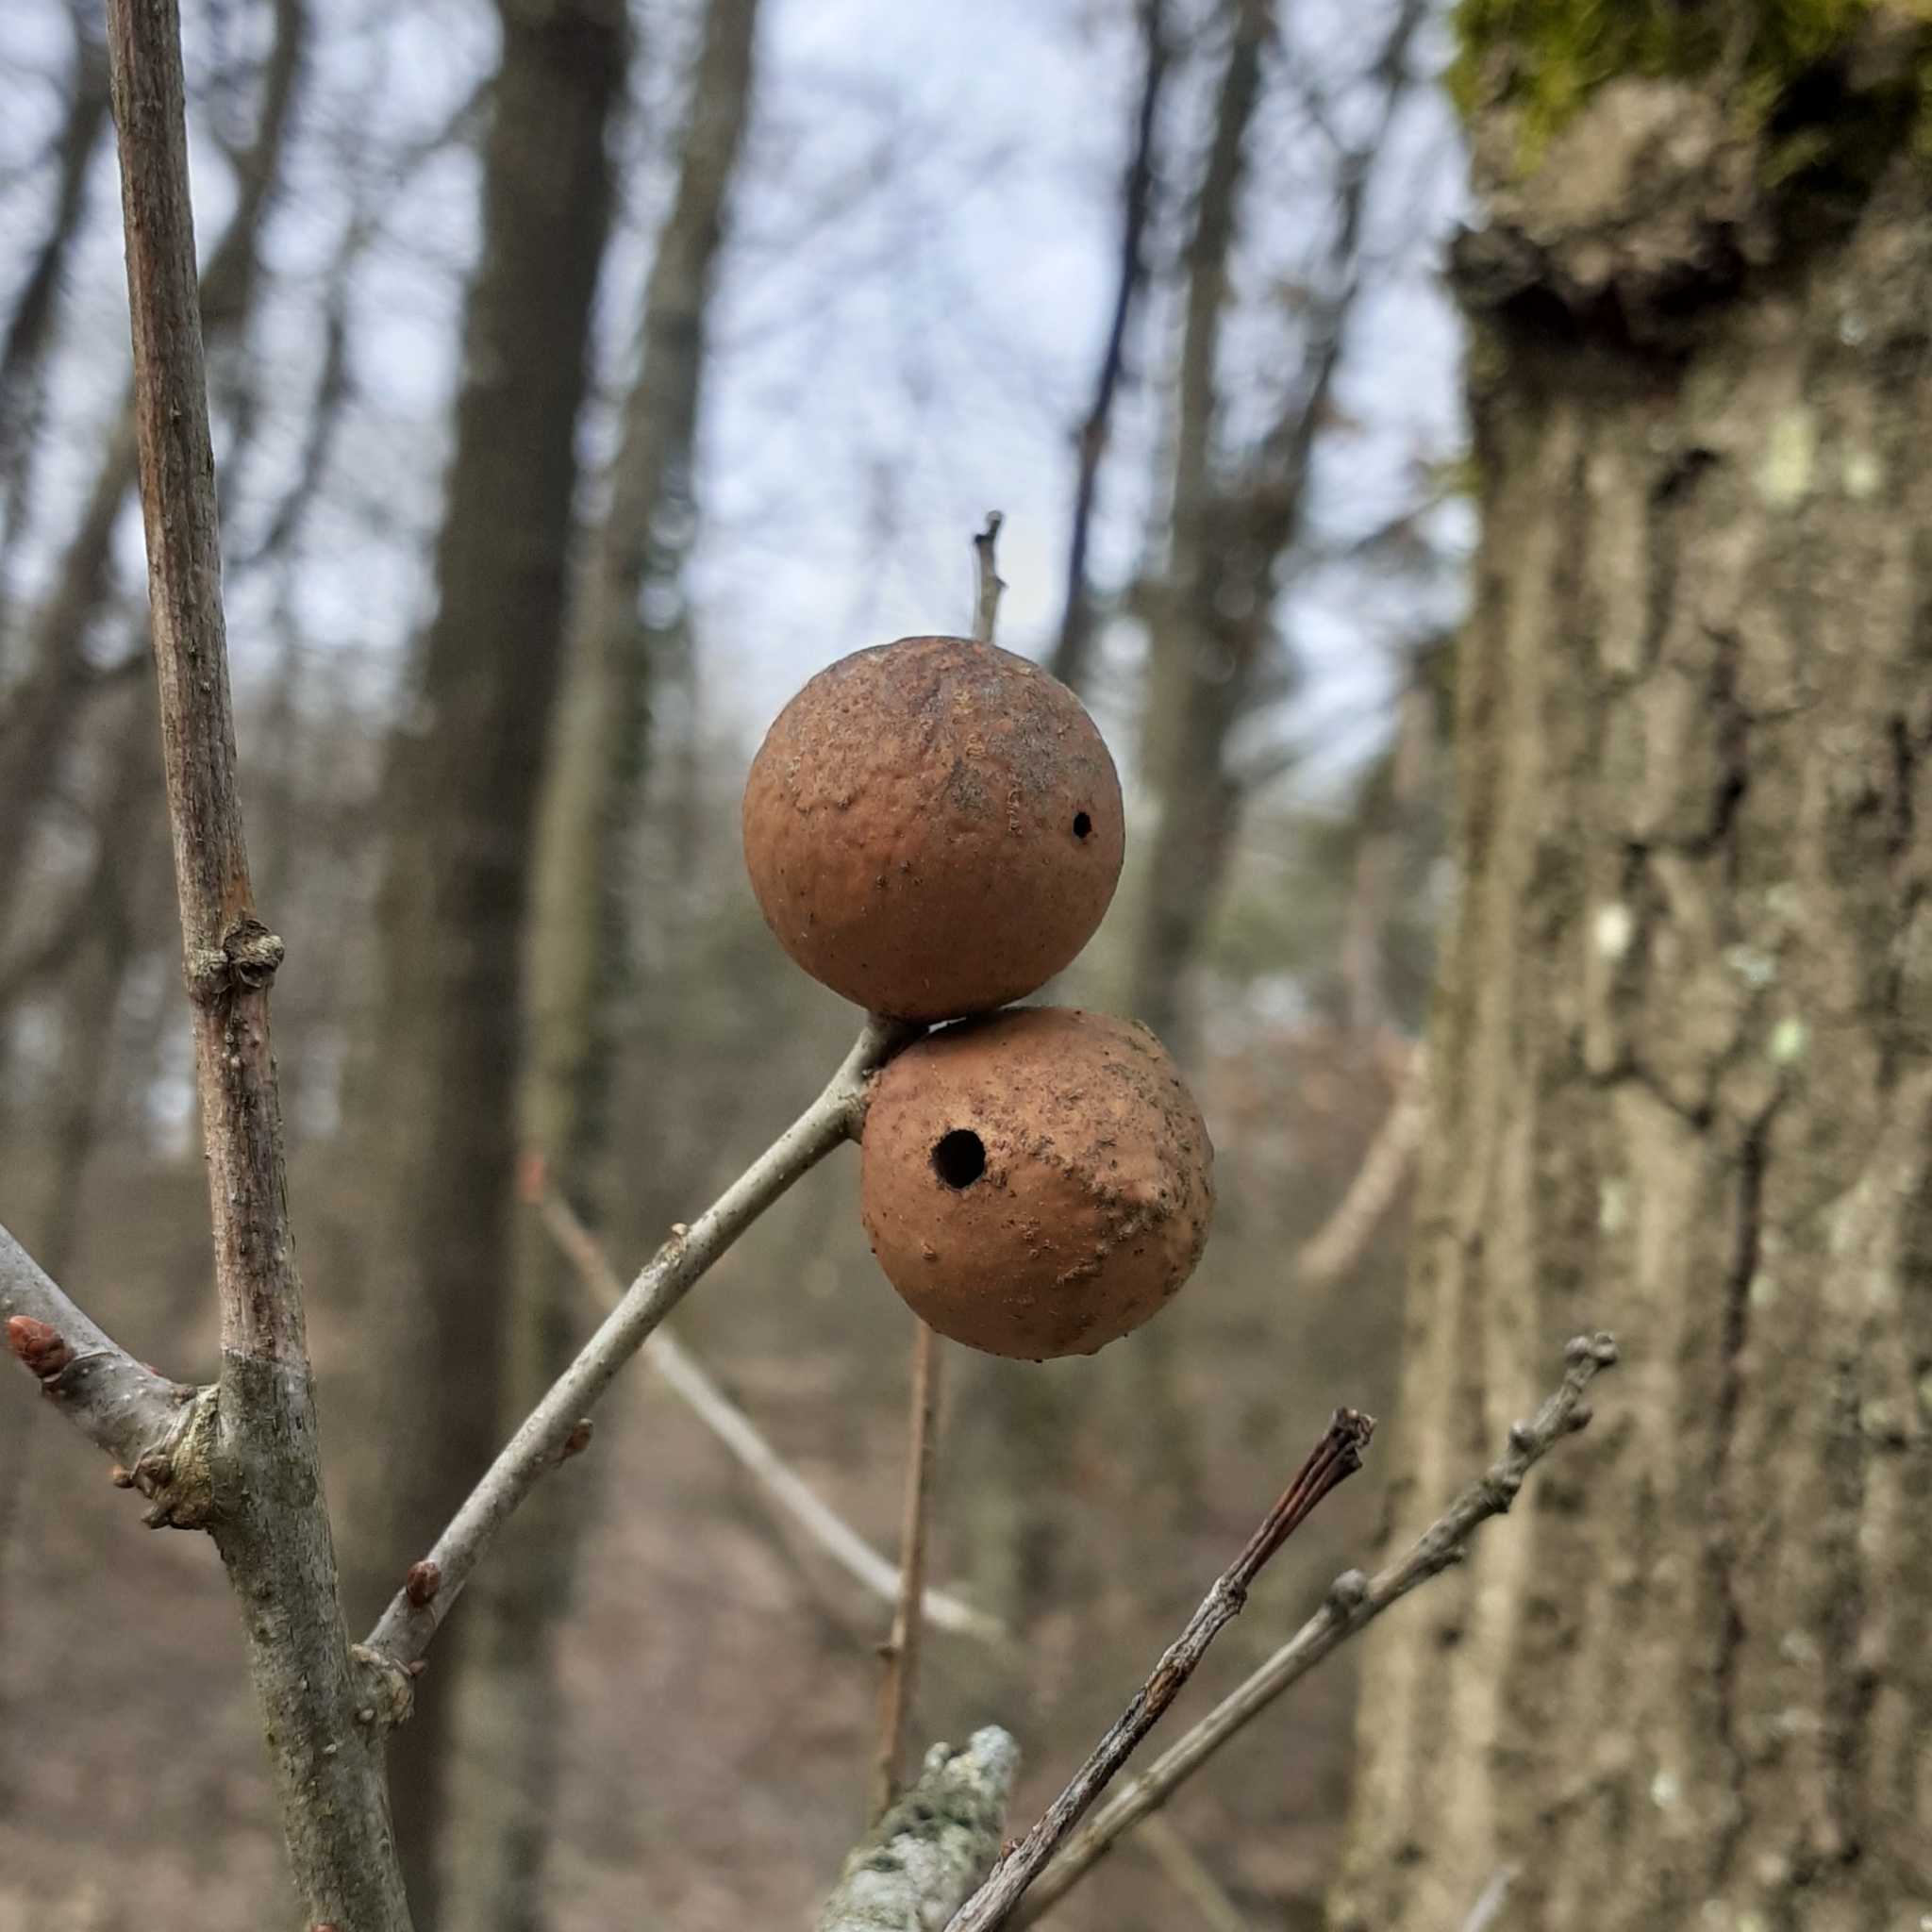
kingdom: Animalia
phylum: Arthropoda
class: Insecta
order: Hymenoptera
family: Cynipidae
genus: Andricus
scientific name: Andricus kollari
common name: Marble gall
